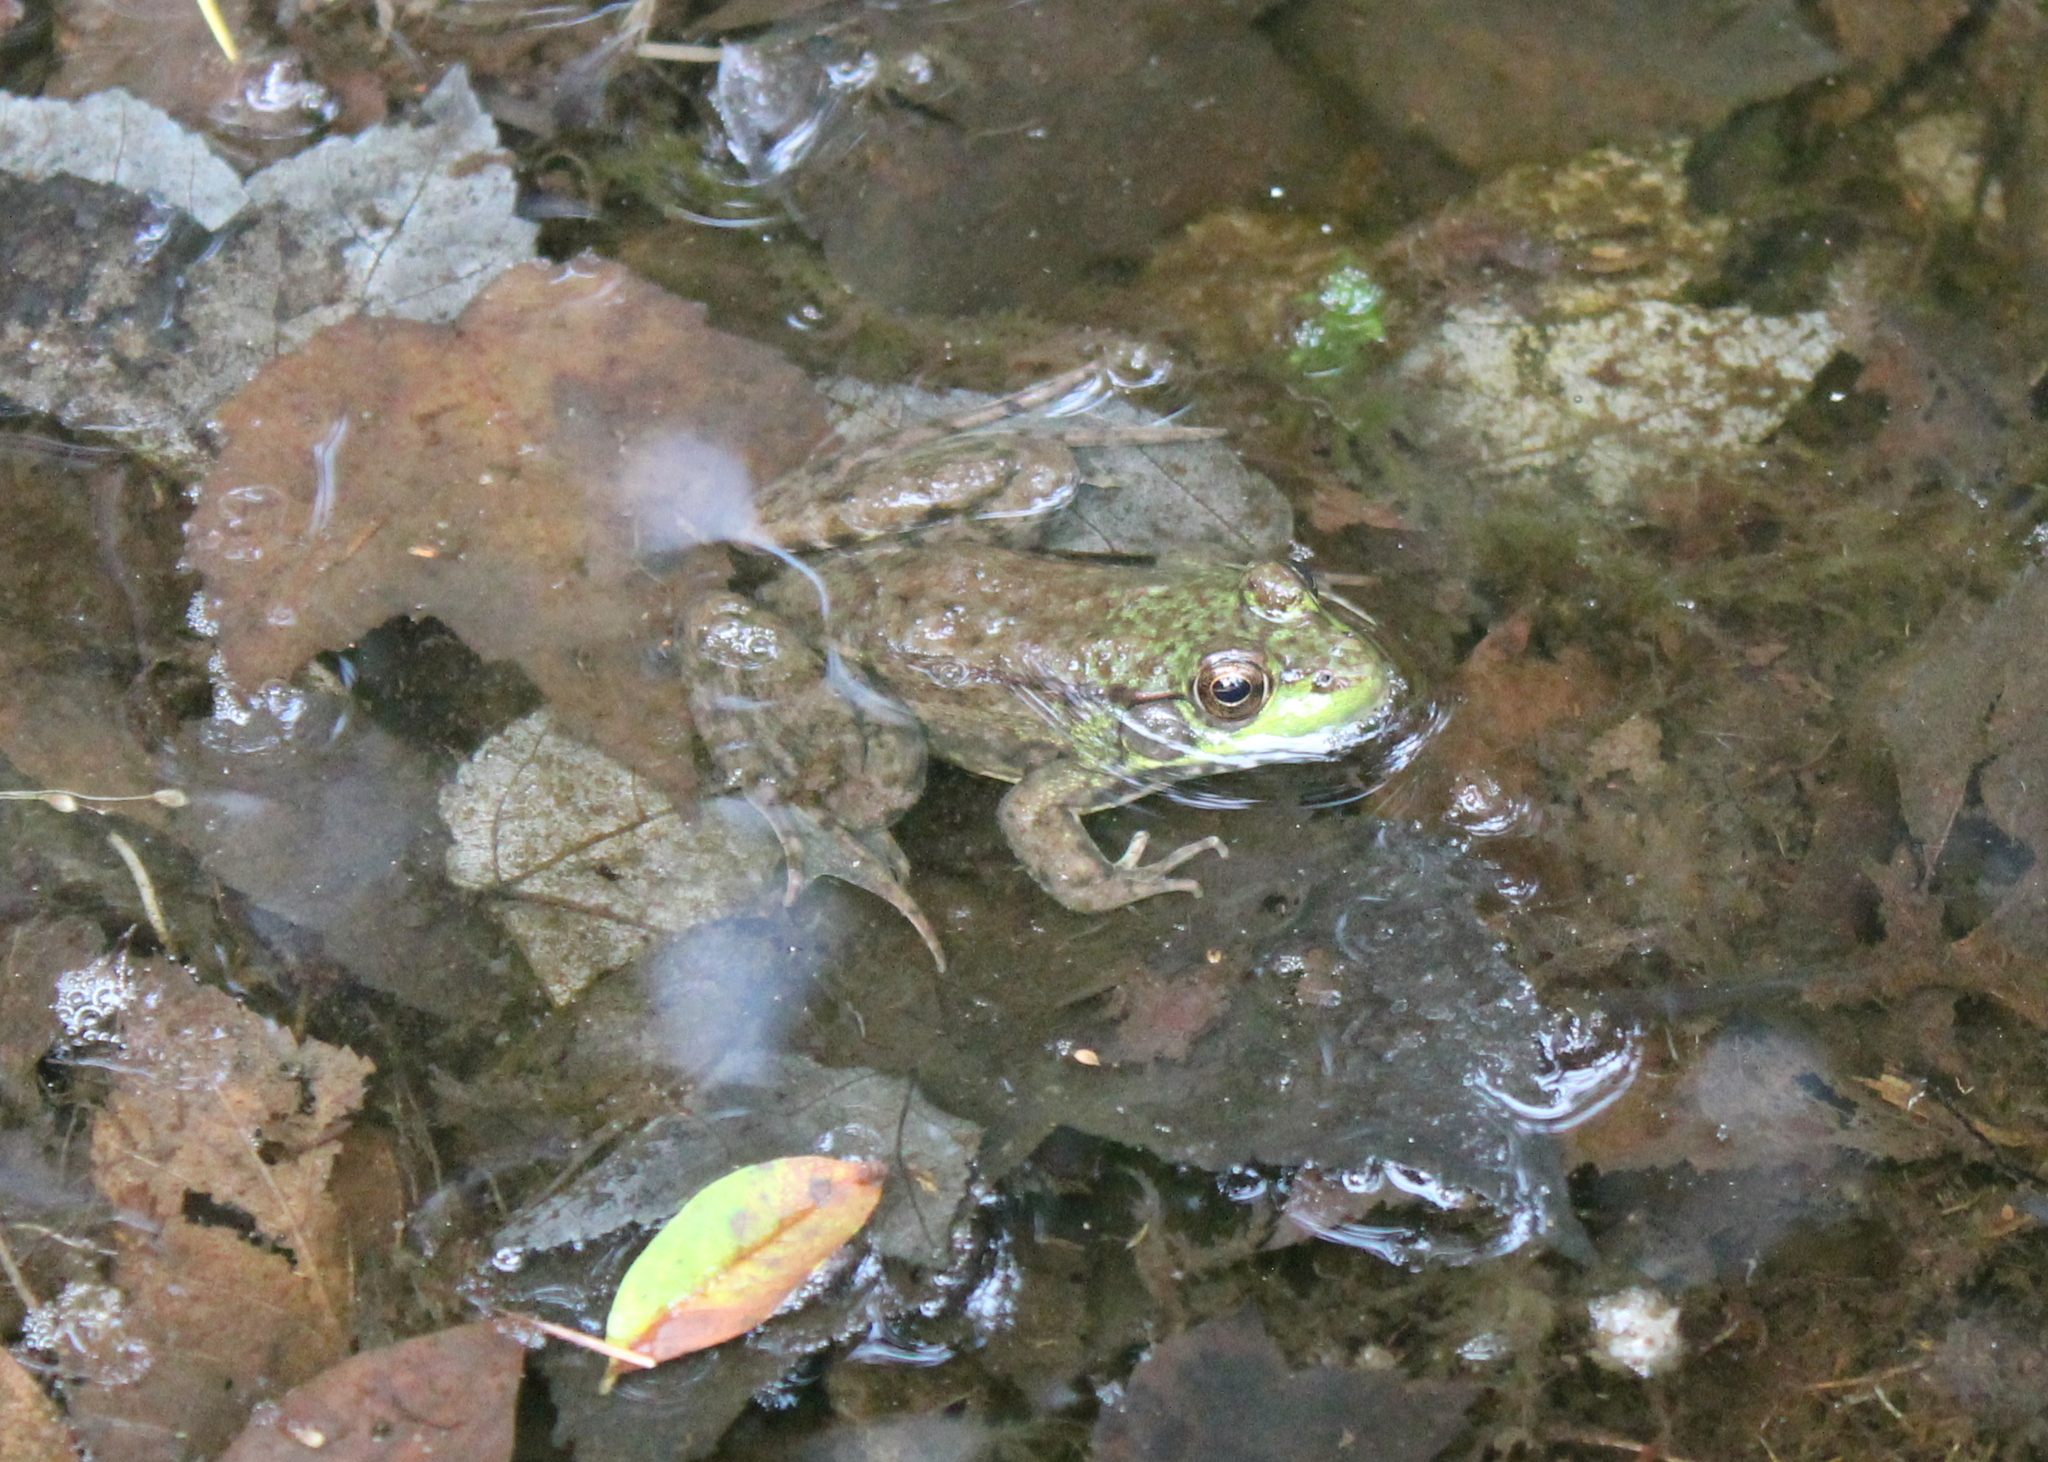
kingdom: Animalia
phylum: Chordata
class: Amphibia
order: Anura
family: Ranidae
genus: Lithobates
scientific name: Lithobates clamitans
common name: Green frog
